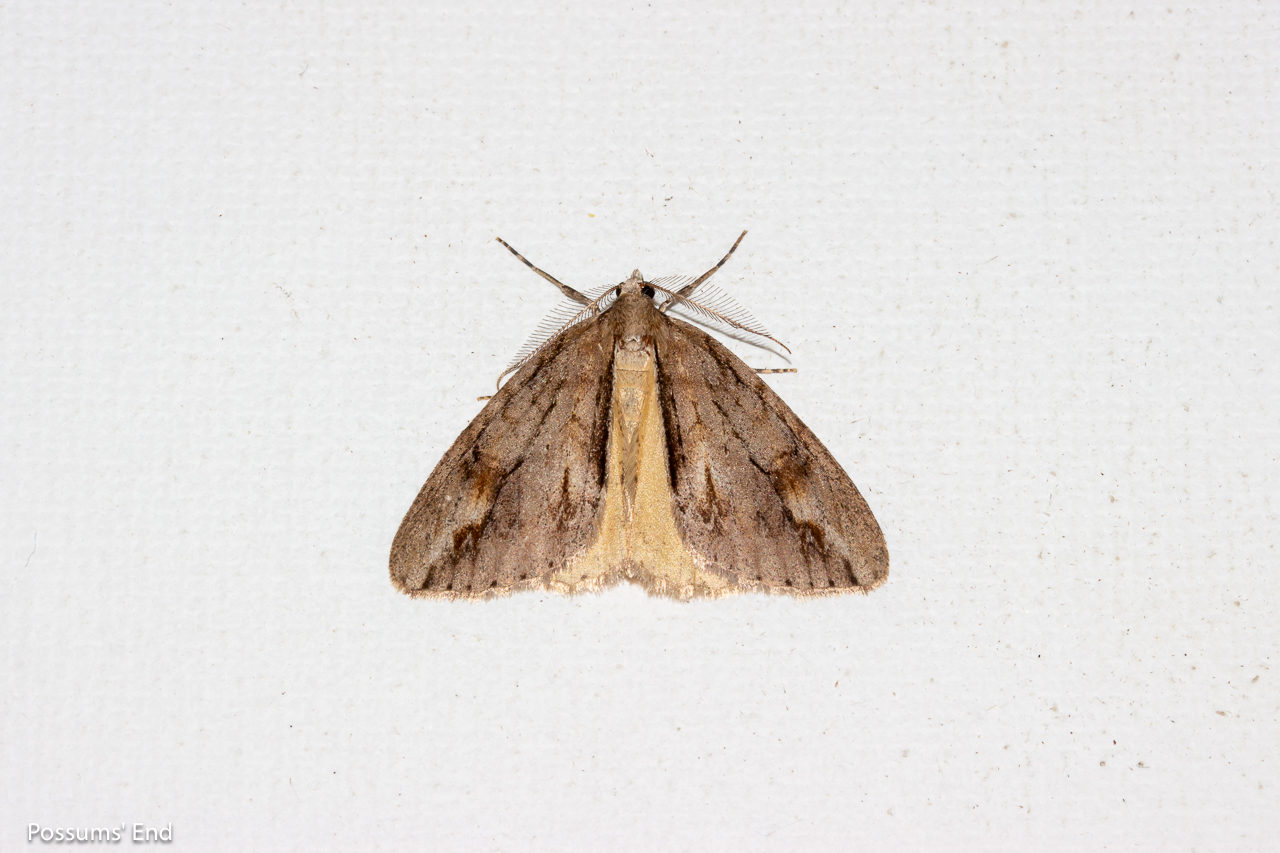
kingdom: Animalia
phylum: Arthropoda
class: Insecta
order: Lepidoptera
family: Geometridae
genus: Pseudocoremia
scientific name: Pseudocoremia lupinata
